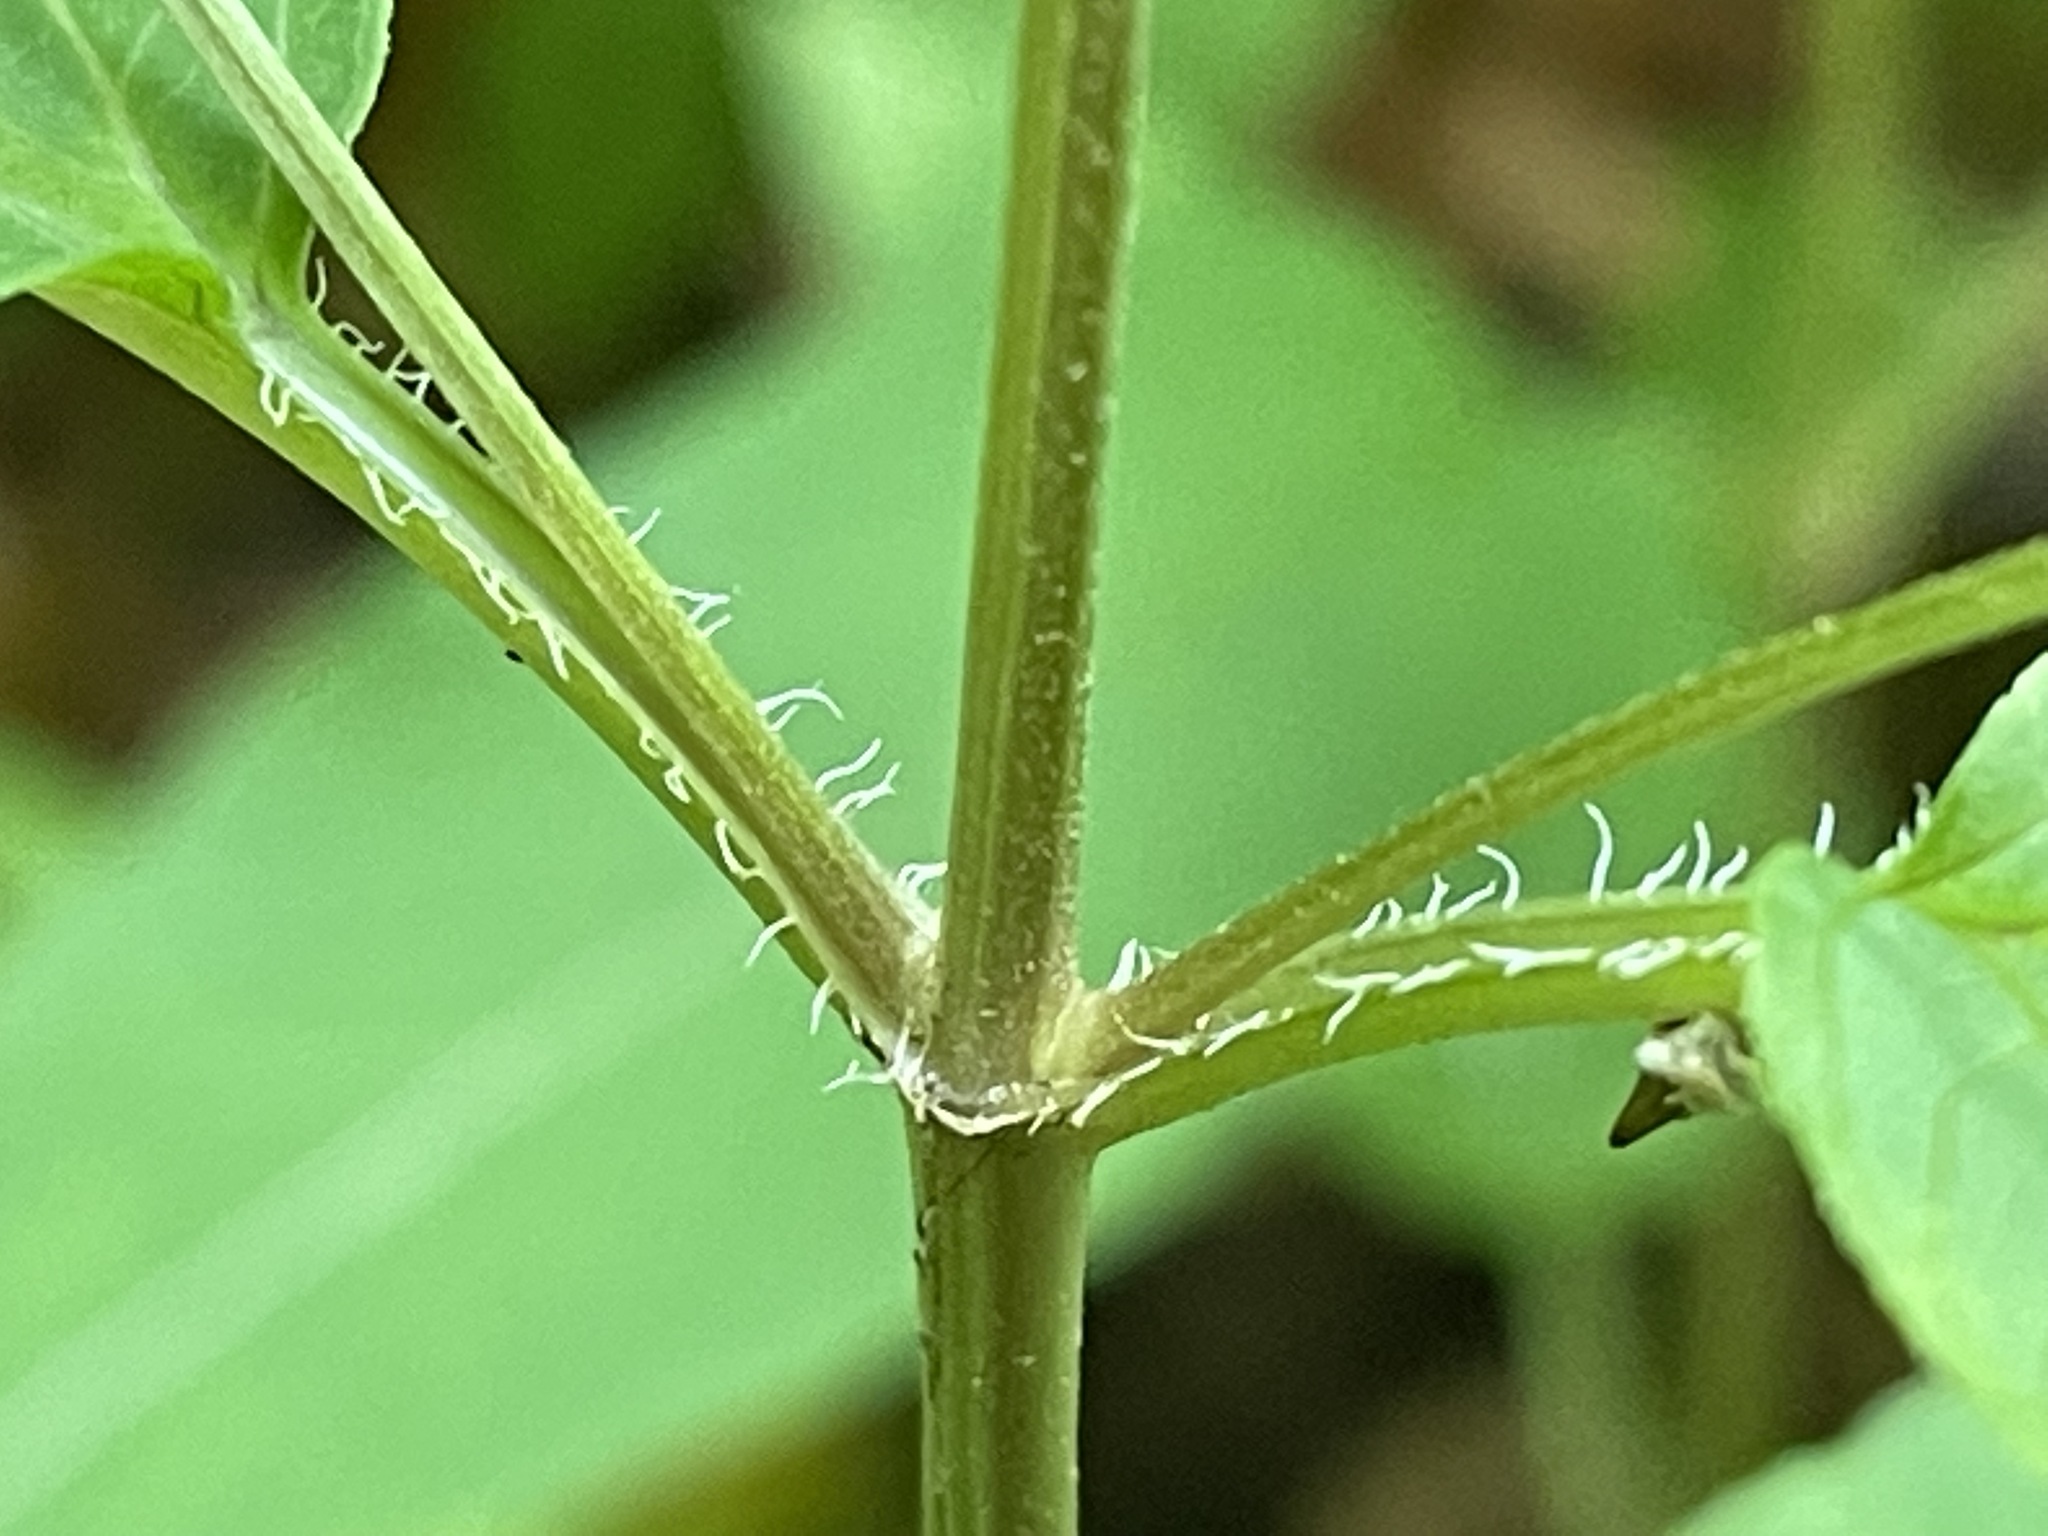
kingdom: Plantae
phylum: Tracheophyta
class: Magnoliopsida
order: Ericales
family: Primulaceae
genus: Lysimachia
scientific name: Lysimachia ciliata
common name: Fringed loosestrife
